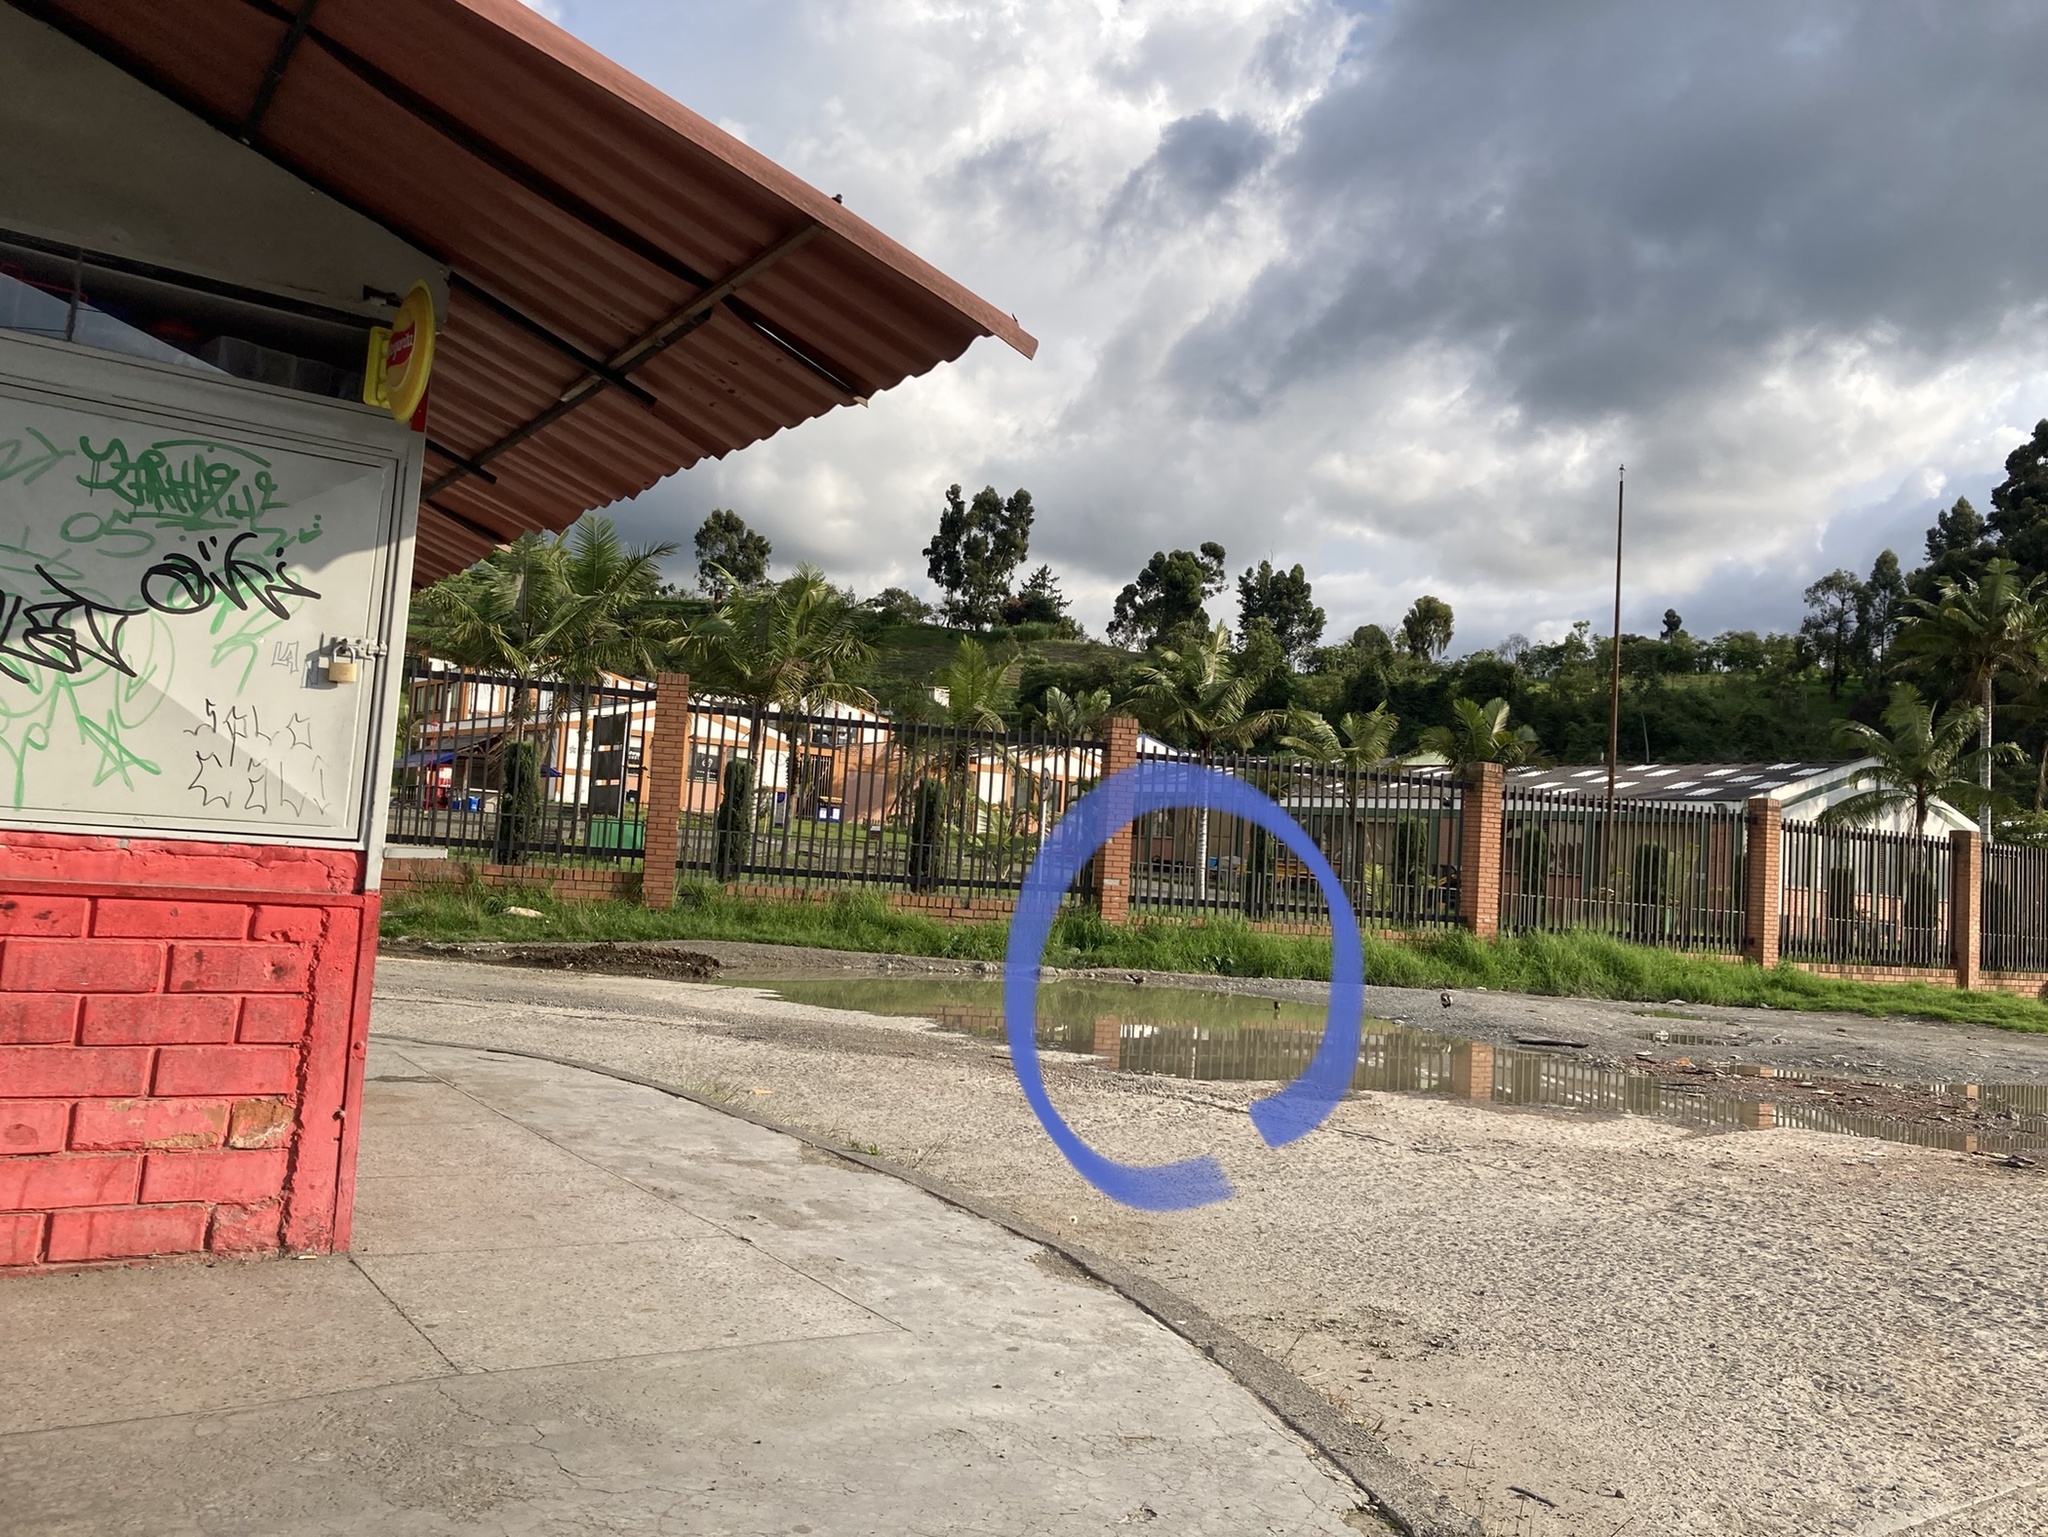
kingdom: Animalia
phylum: Chordata
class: Aves
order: Passeriformes
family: Icteridae
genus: Quiscalus
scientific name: Quiscalus
